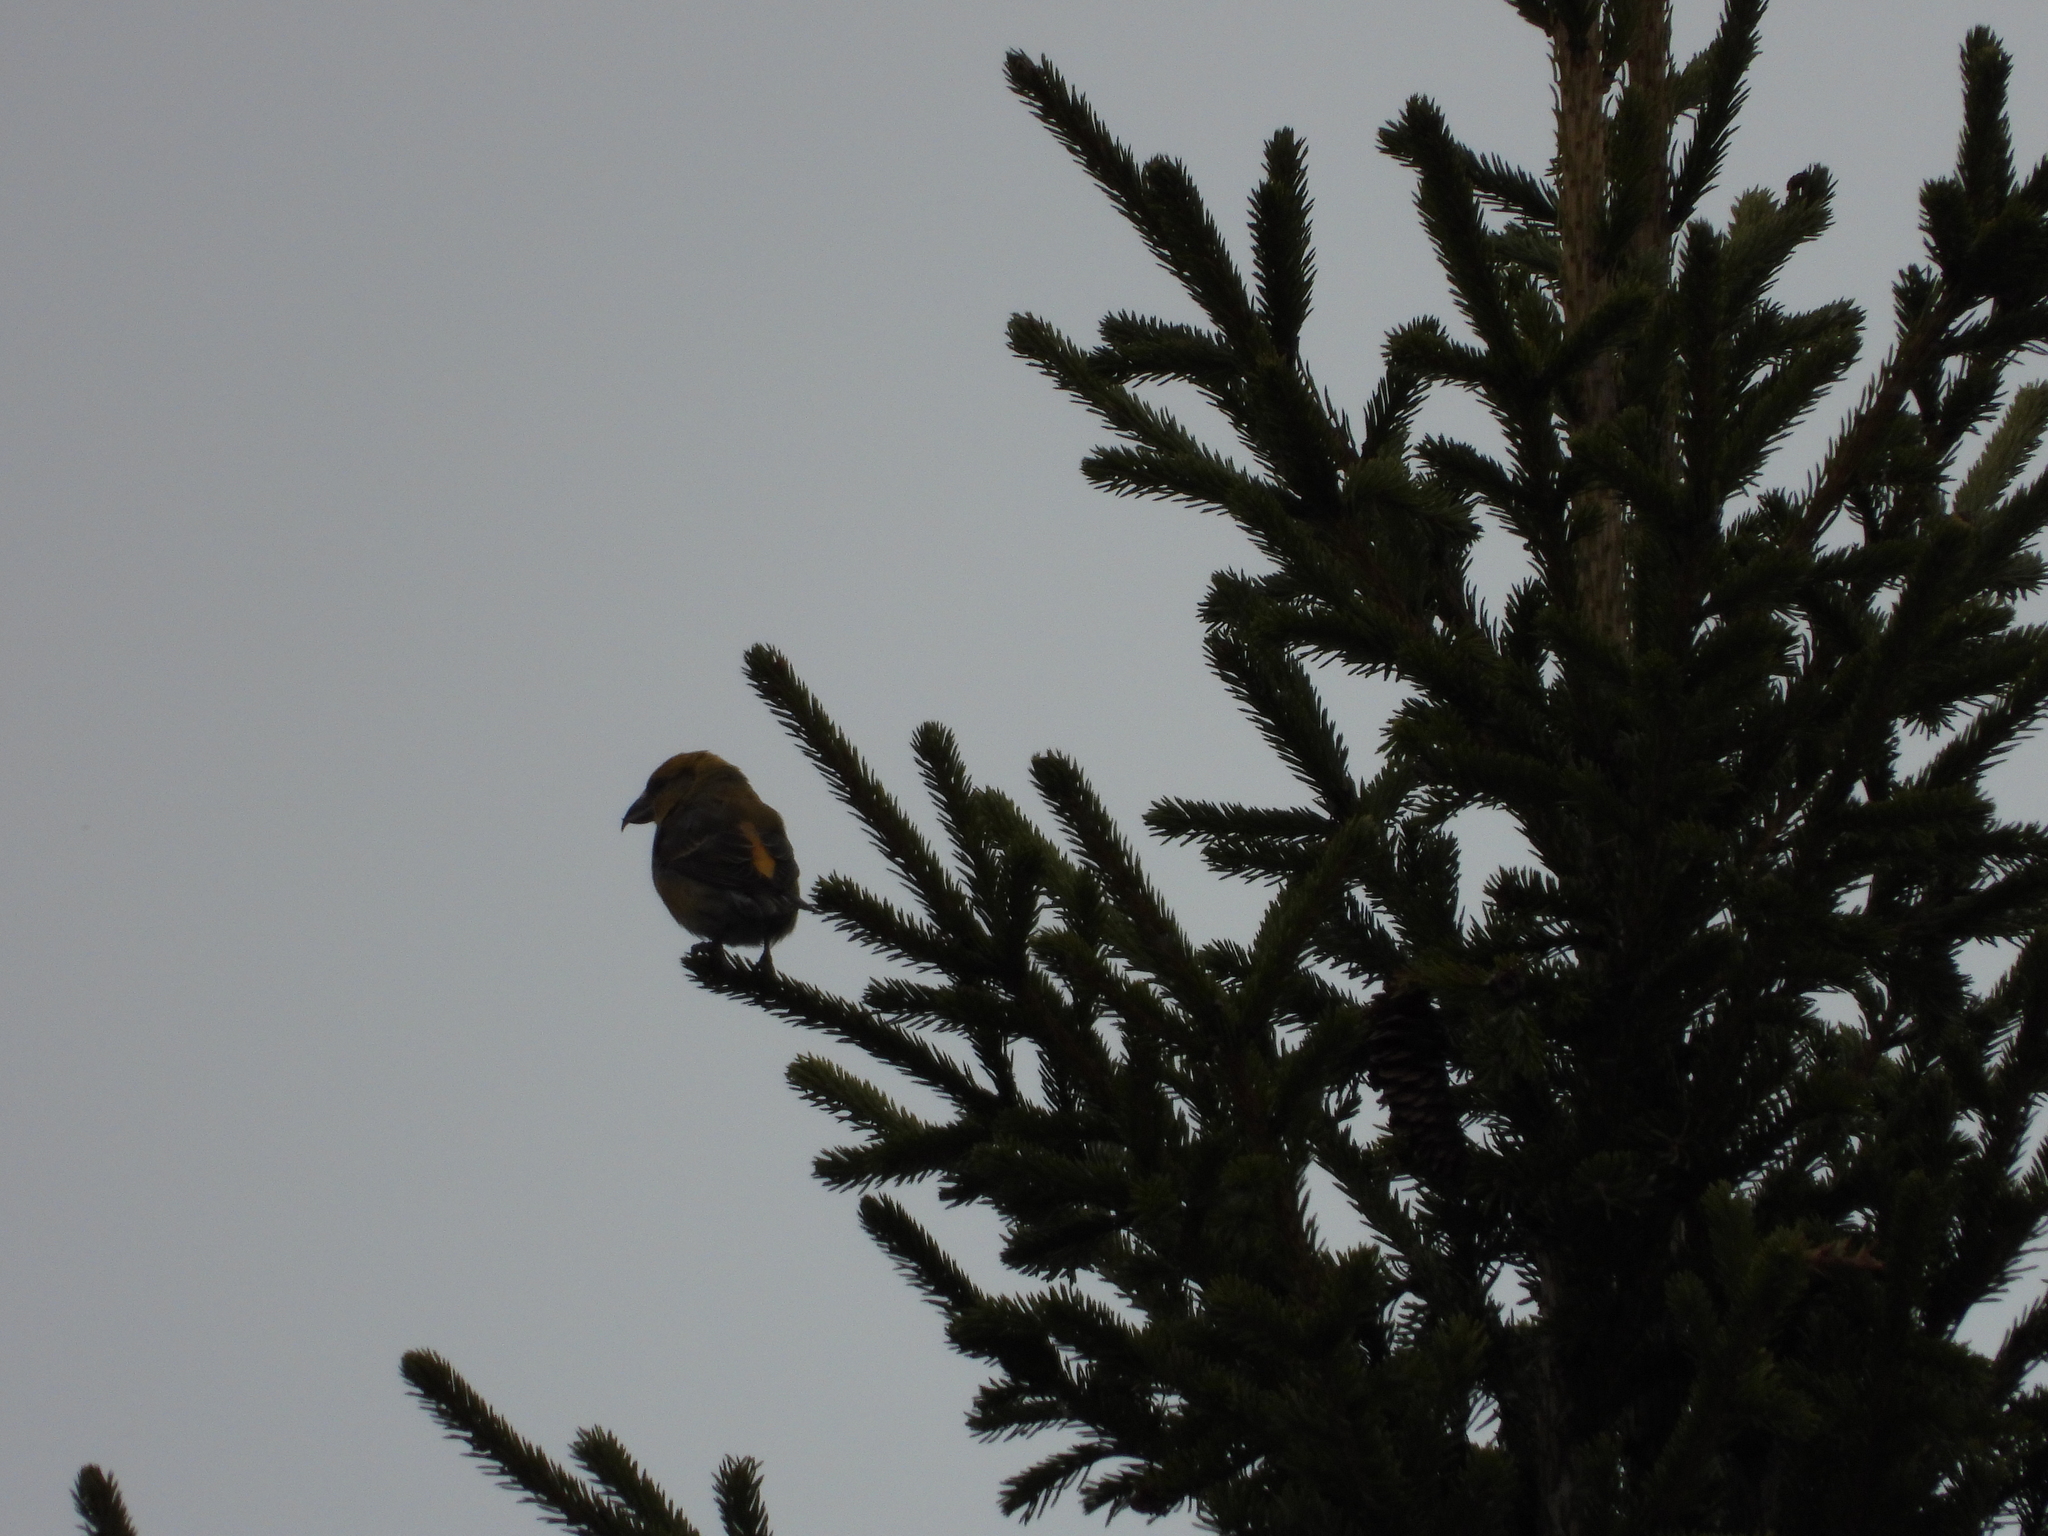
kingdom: Animalia
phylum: Chordata
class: Aves
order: Passeriformes
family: Fringillidae
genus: Loxia
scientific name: Loxia curvirostra
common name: Red crossbill
